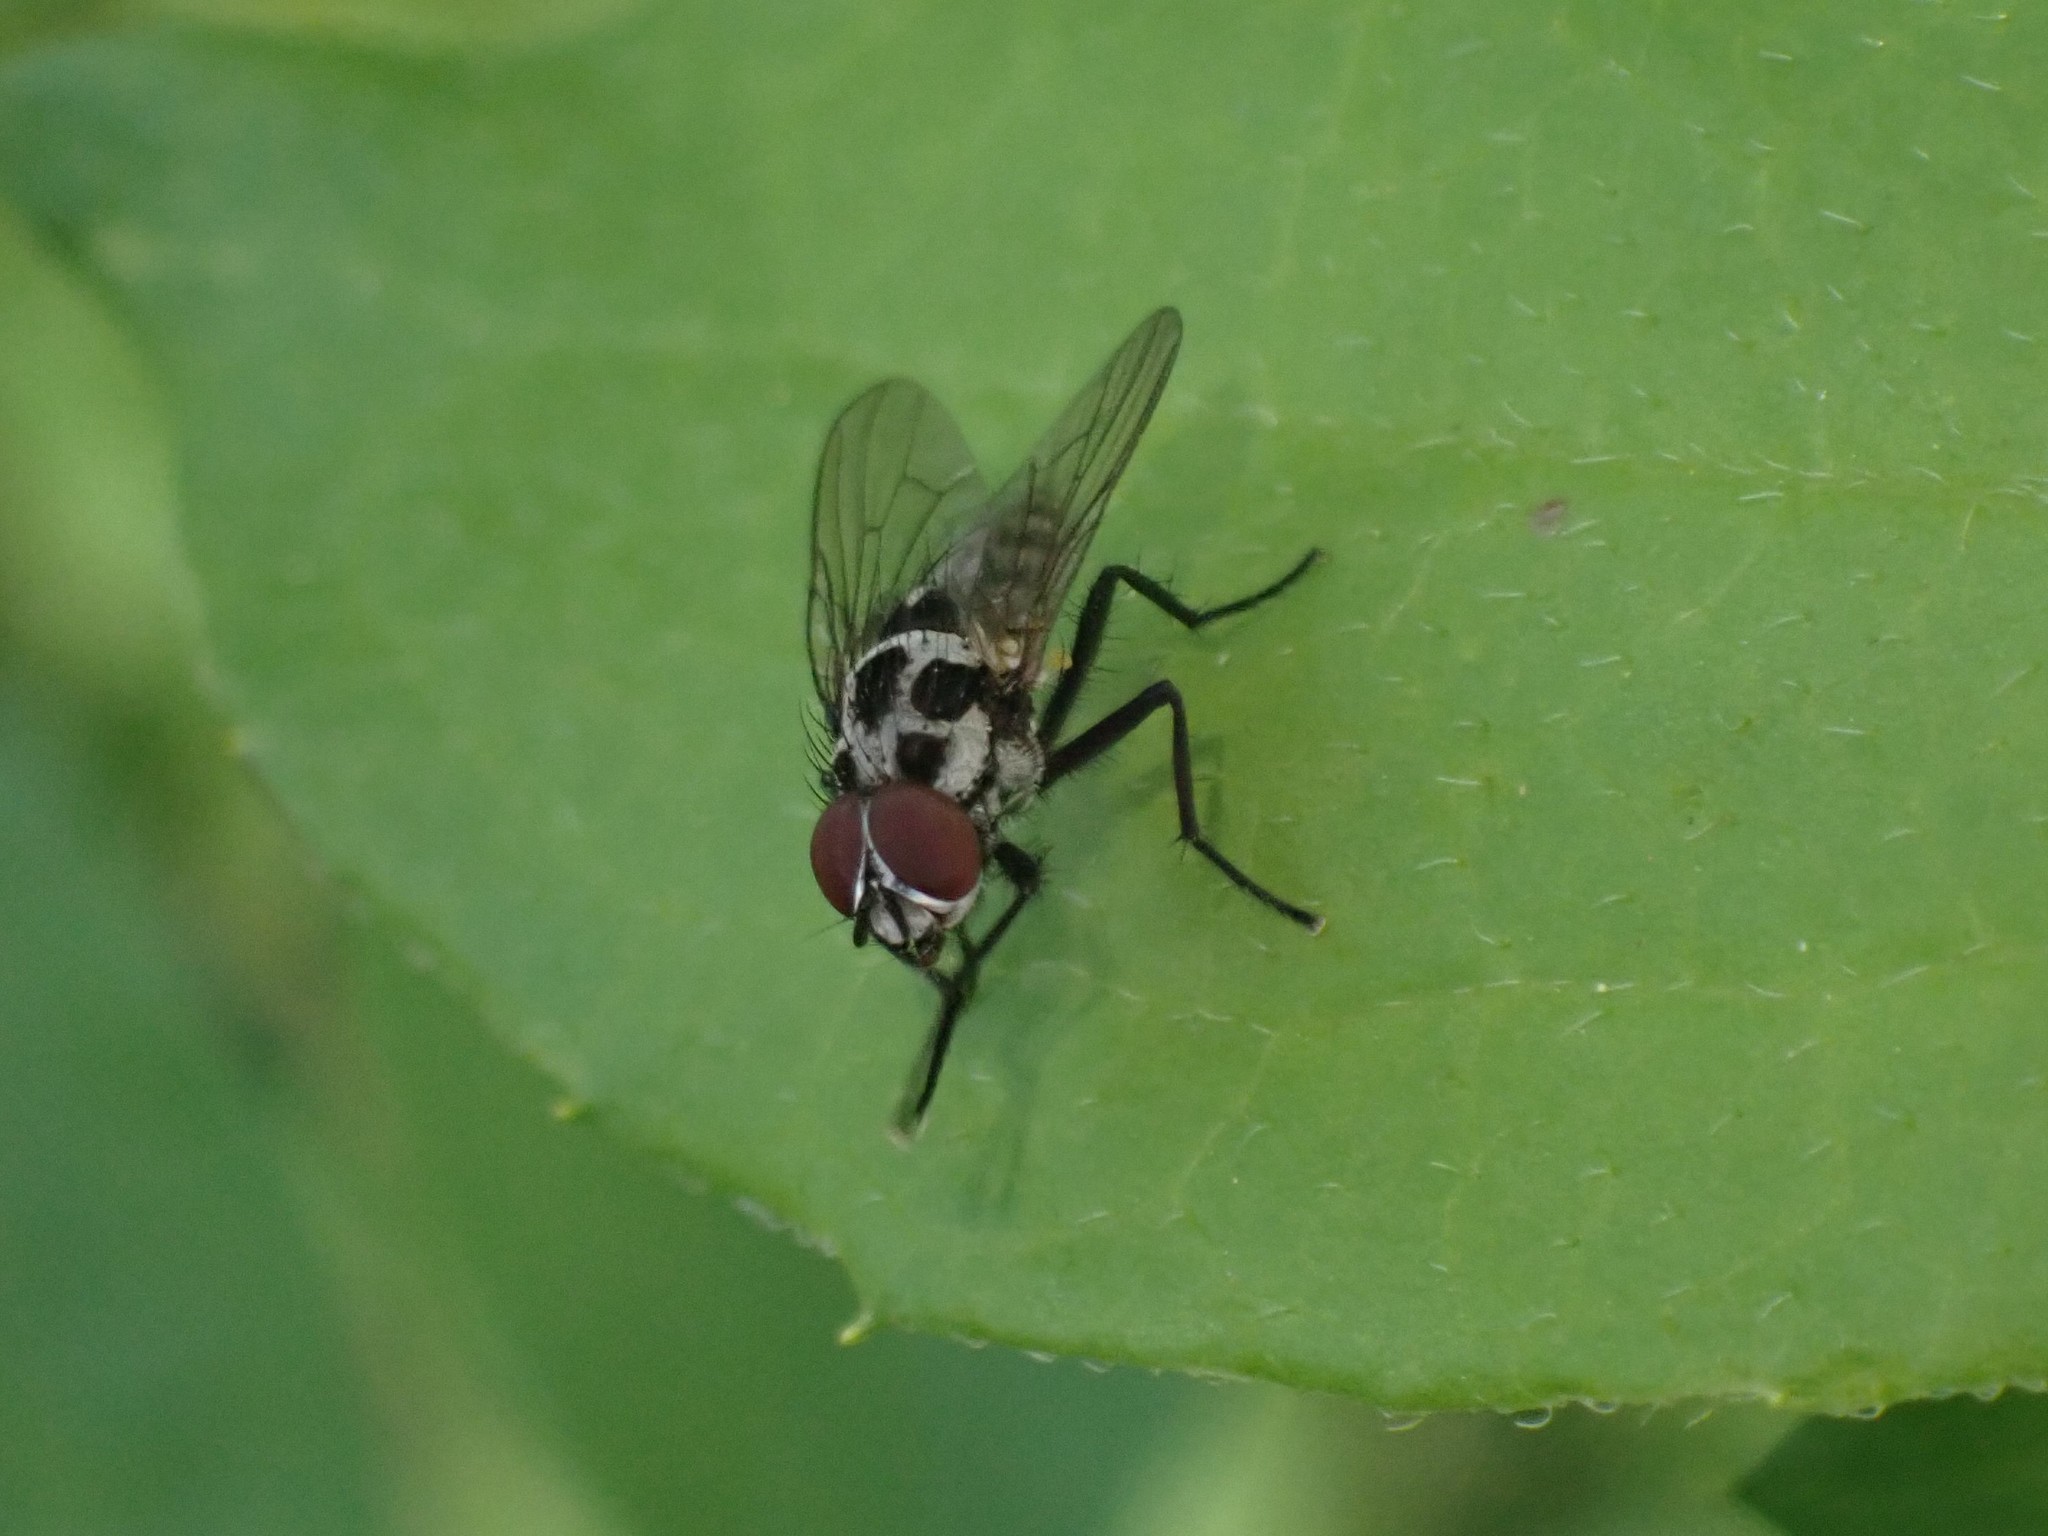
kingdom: Animalia
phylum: Arthropoda
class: Insecta
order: Diptera
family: Anthomyiidae
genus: Anthomyia
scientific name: Anthomyia procellaris
